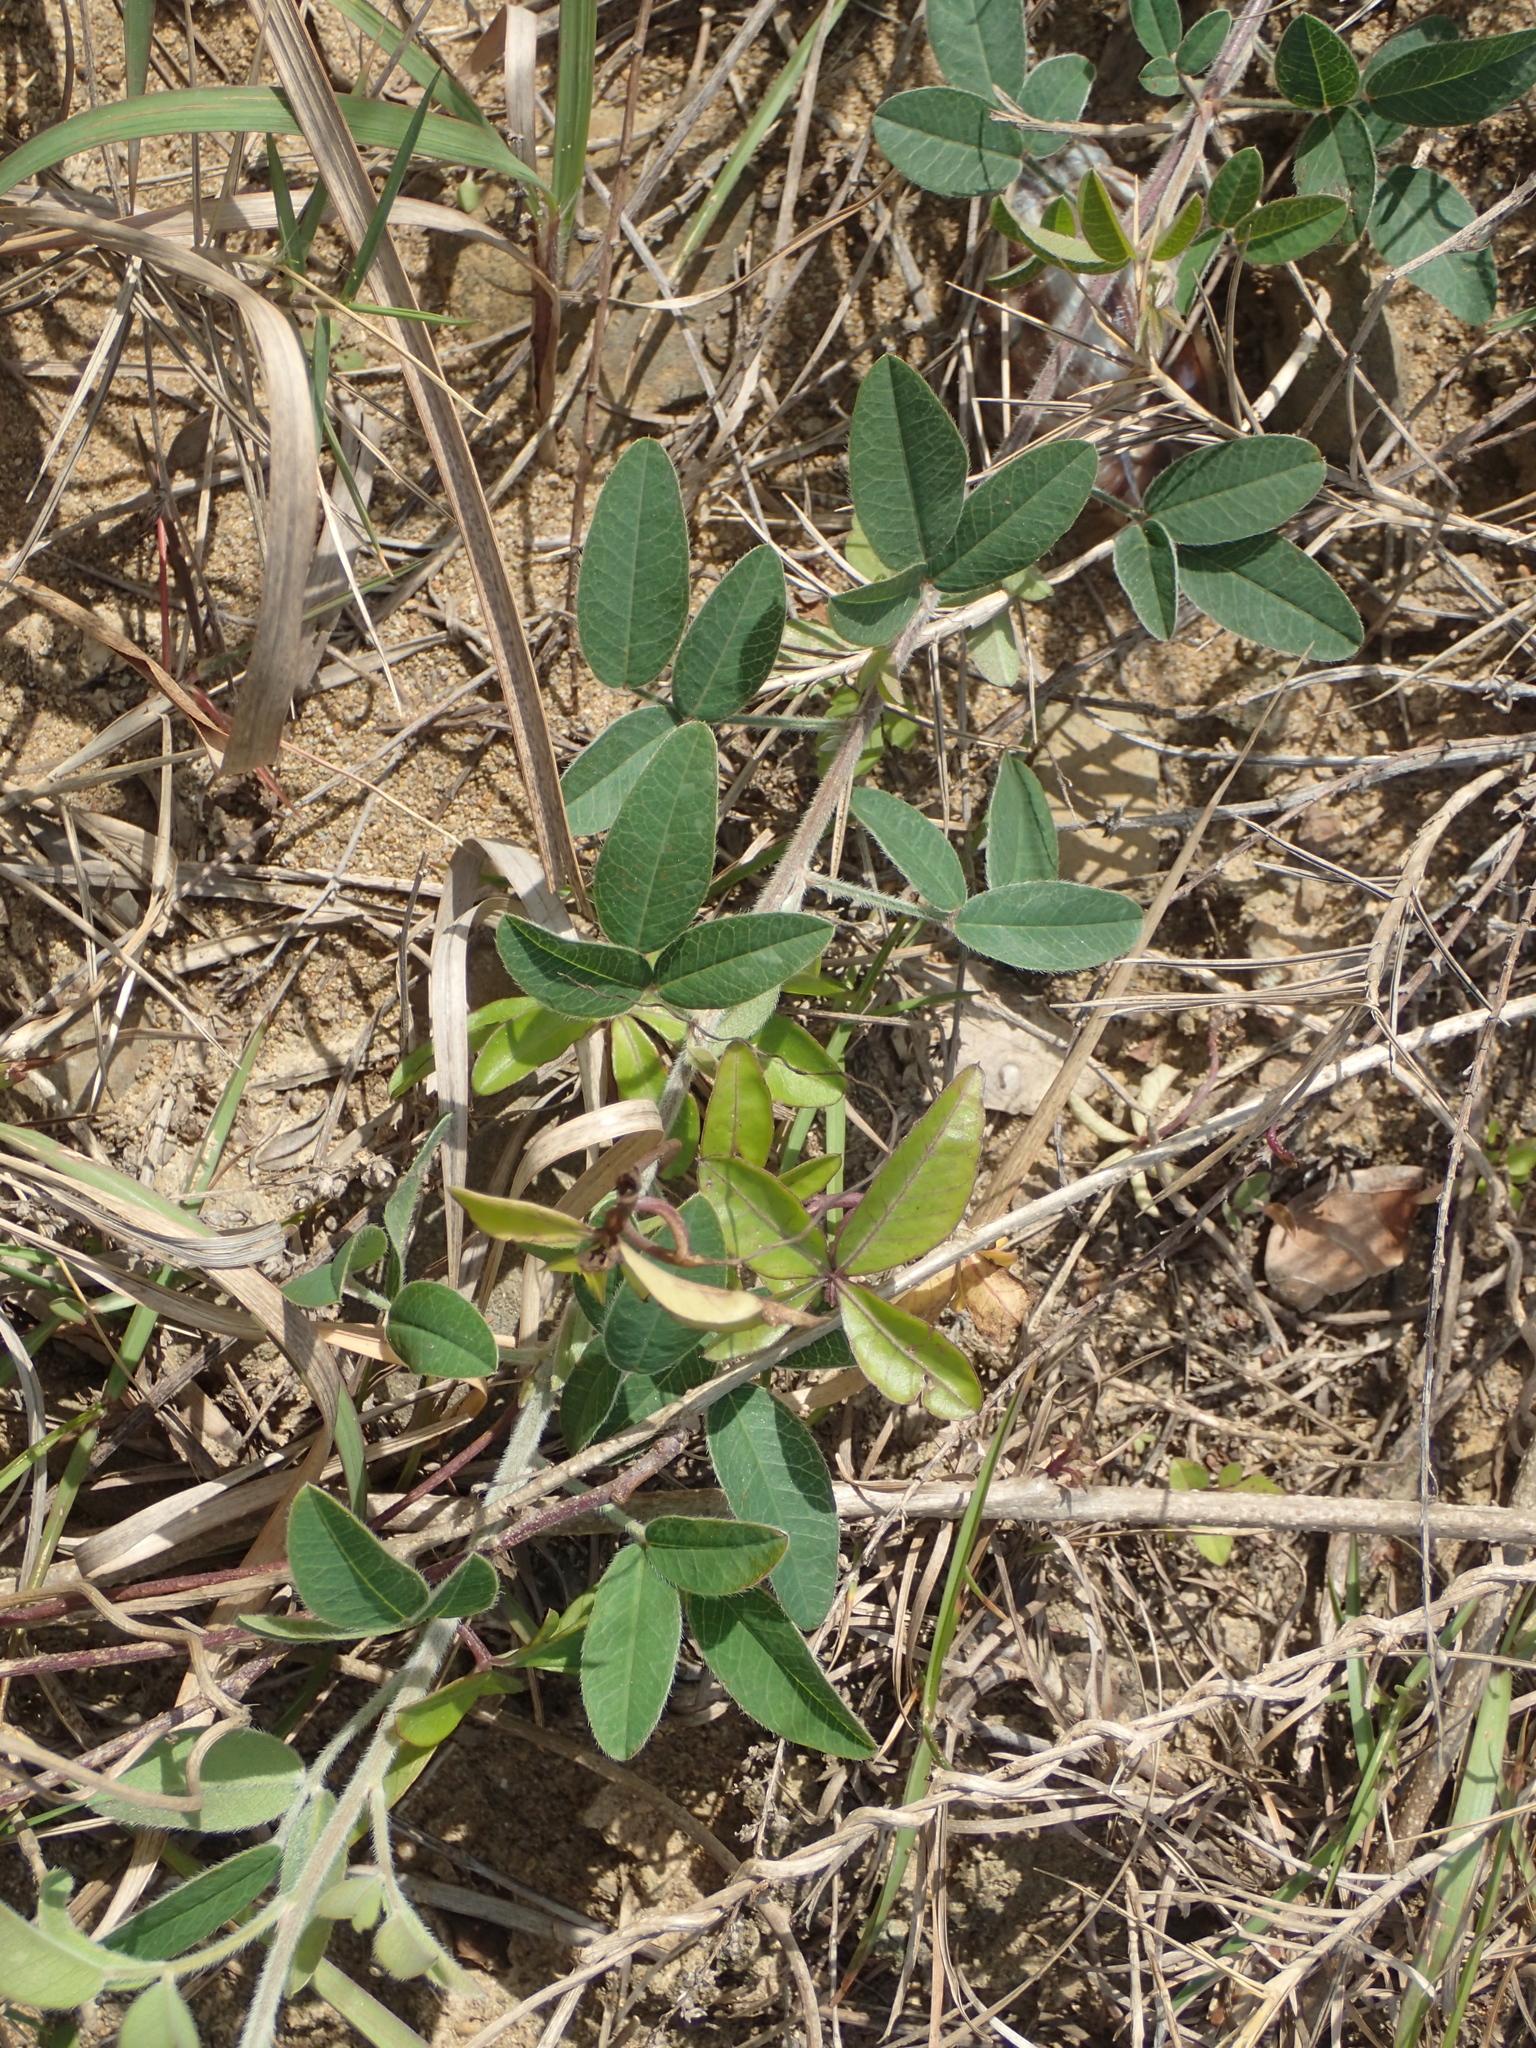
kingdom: Plantae
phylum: Tracheophyta
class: Magnoliopsida
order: Fabales
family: Fabaceae
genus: Lespedeza
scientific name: Lespedeza daurica
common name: Dahurian lespedeza
